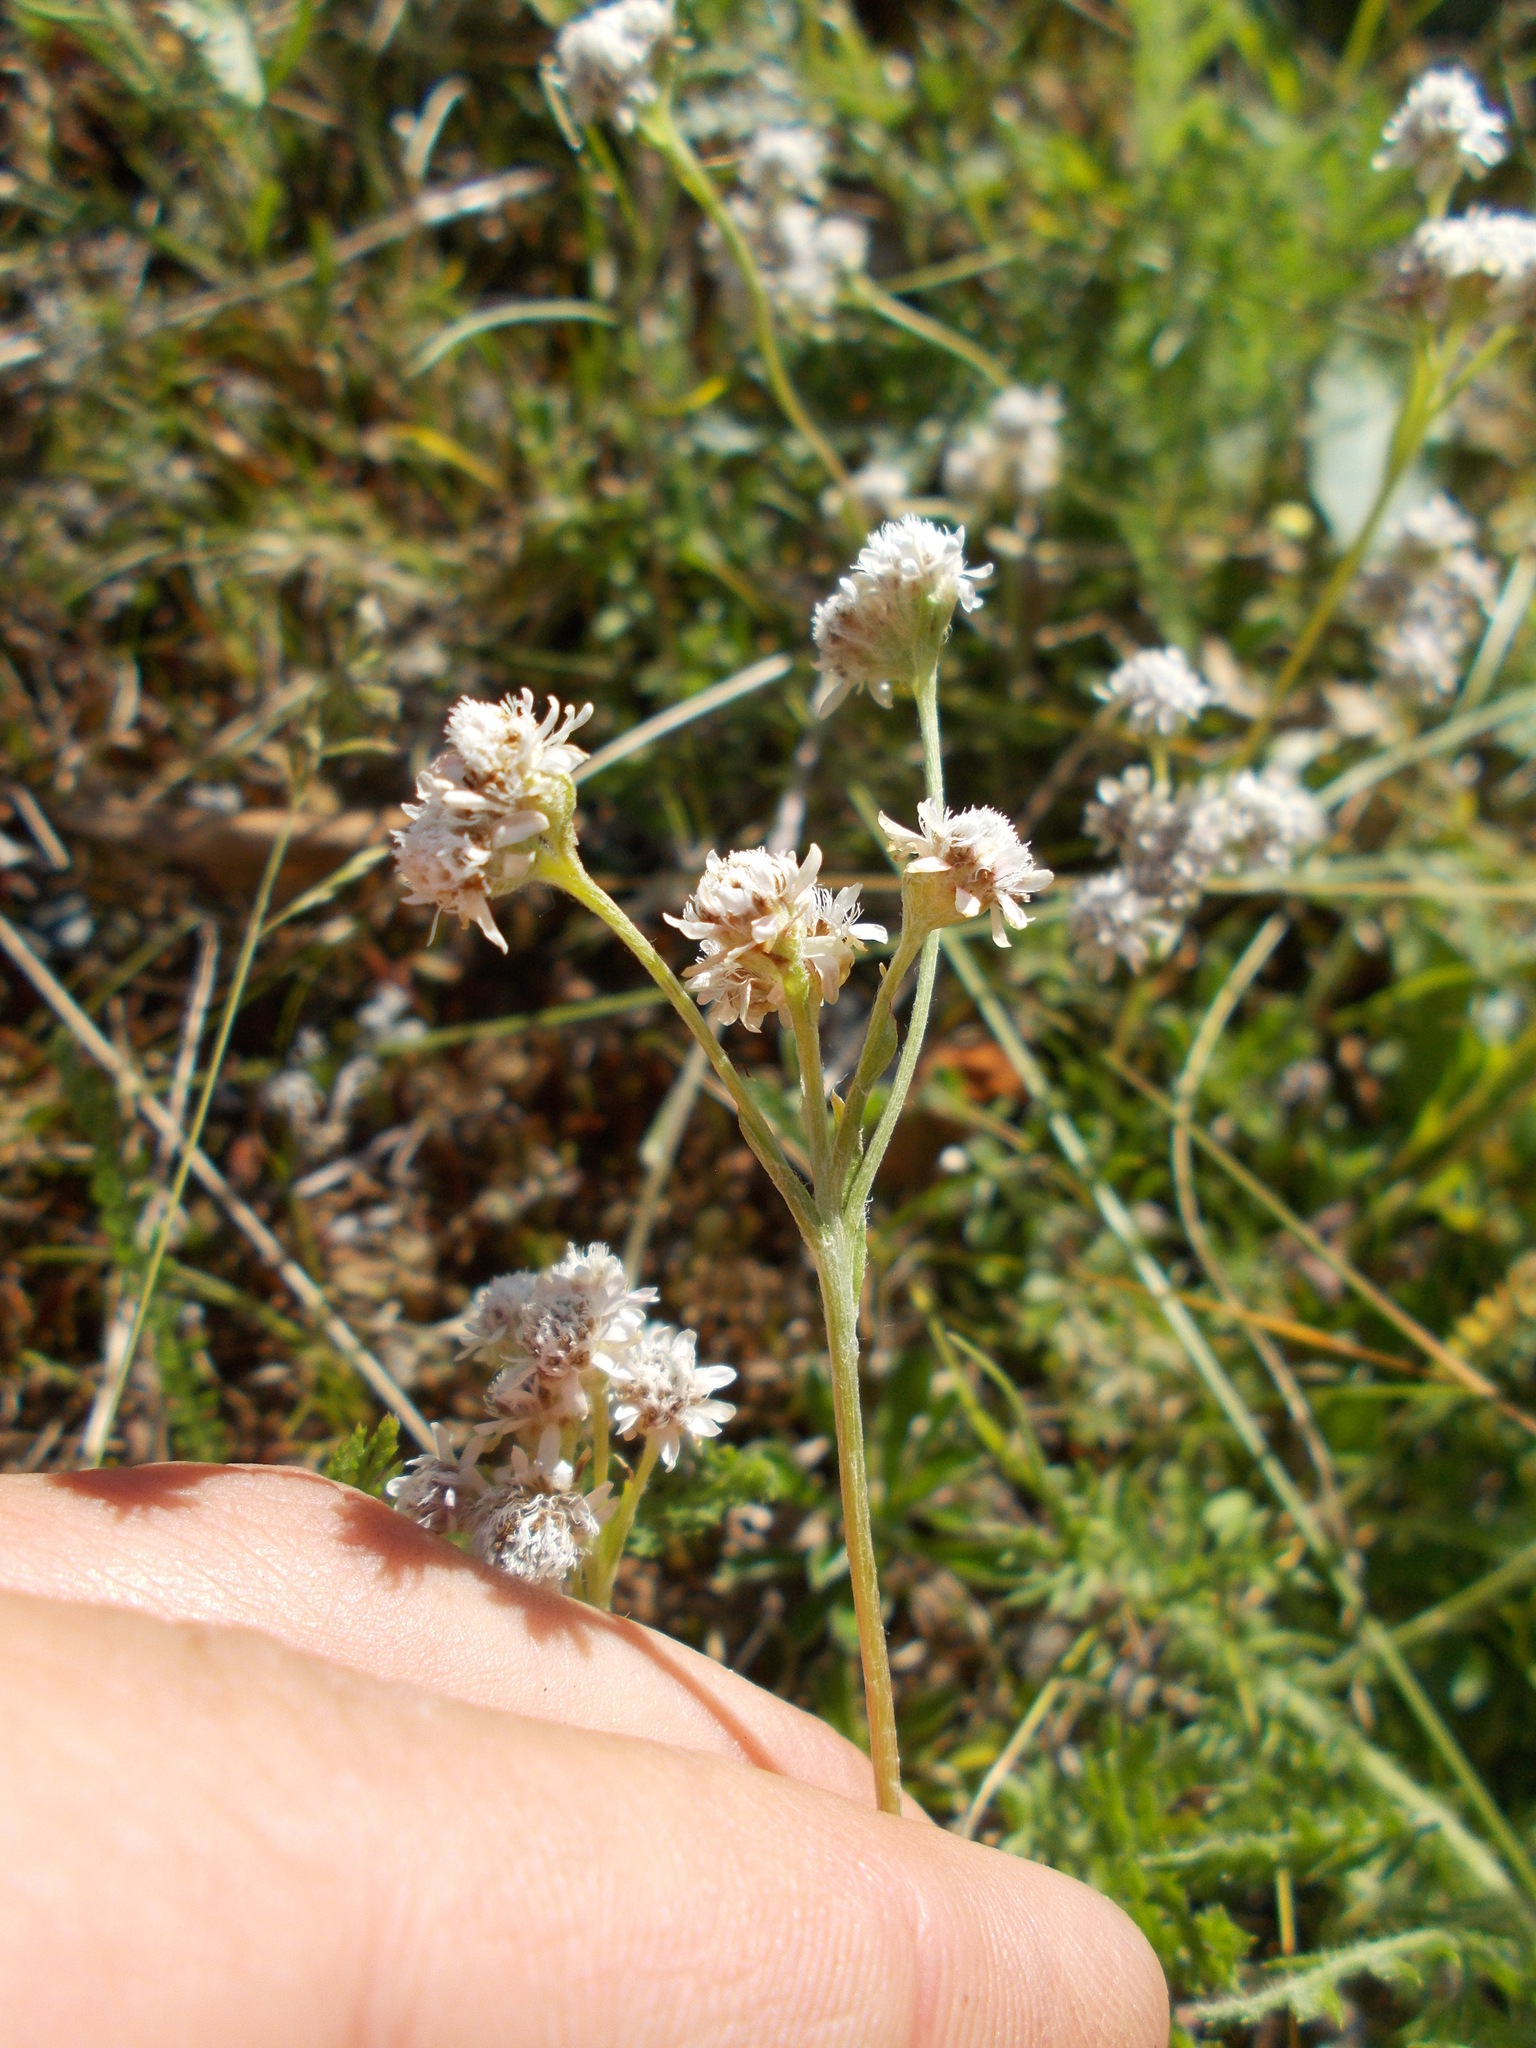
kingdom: Plantae
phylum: Tracheophyta
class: Magnoliopsida
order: Asterales
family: Asteraceae
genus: Antennaria
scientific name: Antennaria dioica
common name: Mountain everlasting
